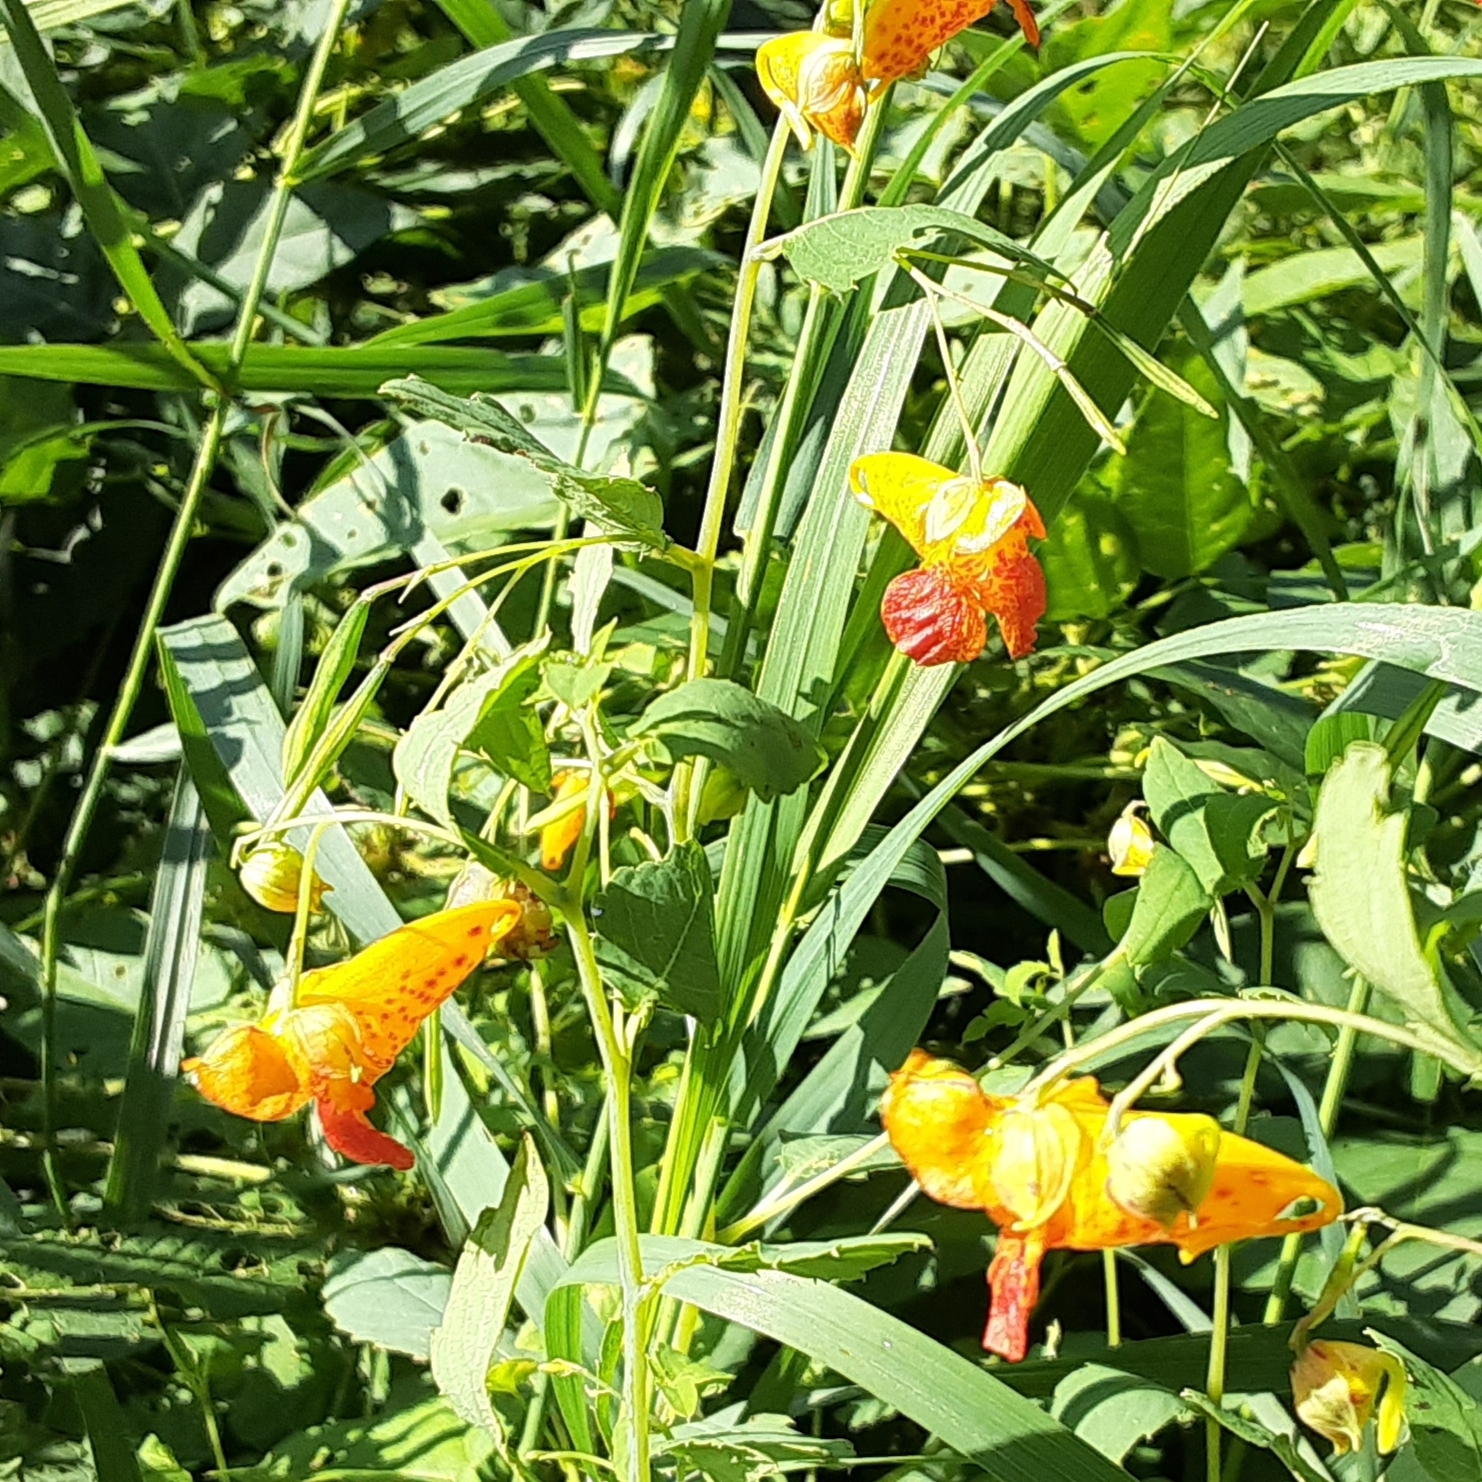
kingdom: Plantae
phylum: Tracheophyta
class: Magnoliopsida
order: Ericales
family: Balsaminaceae
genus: Impatiens
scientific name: Impatiens capensis
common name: Orange balsam
